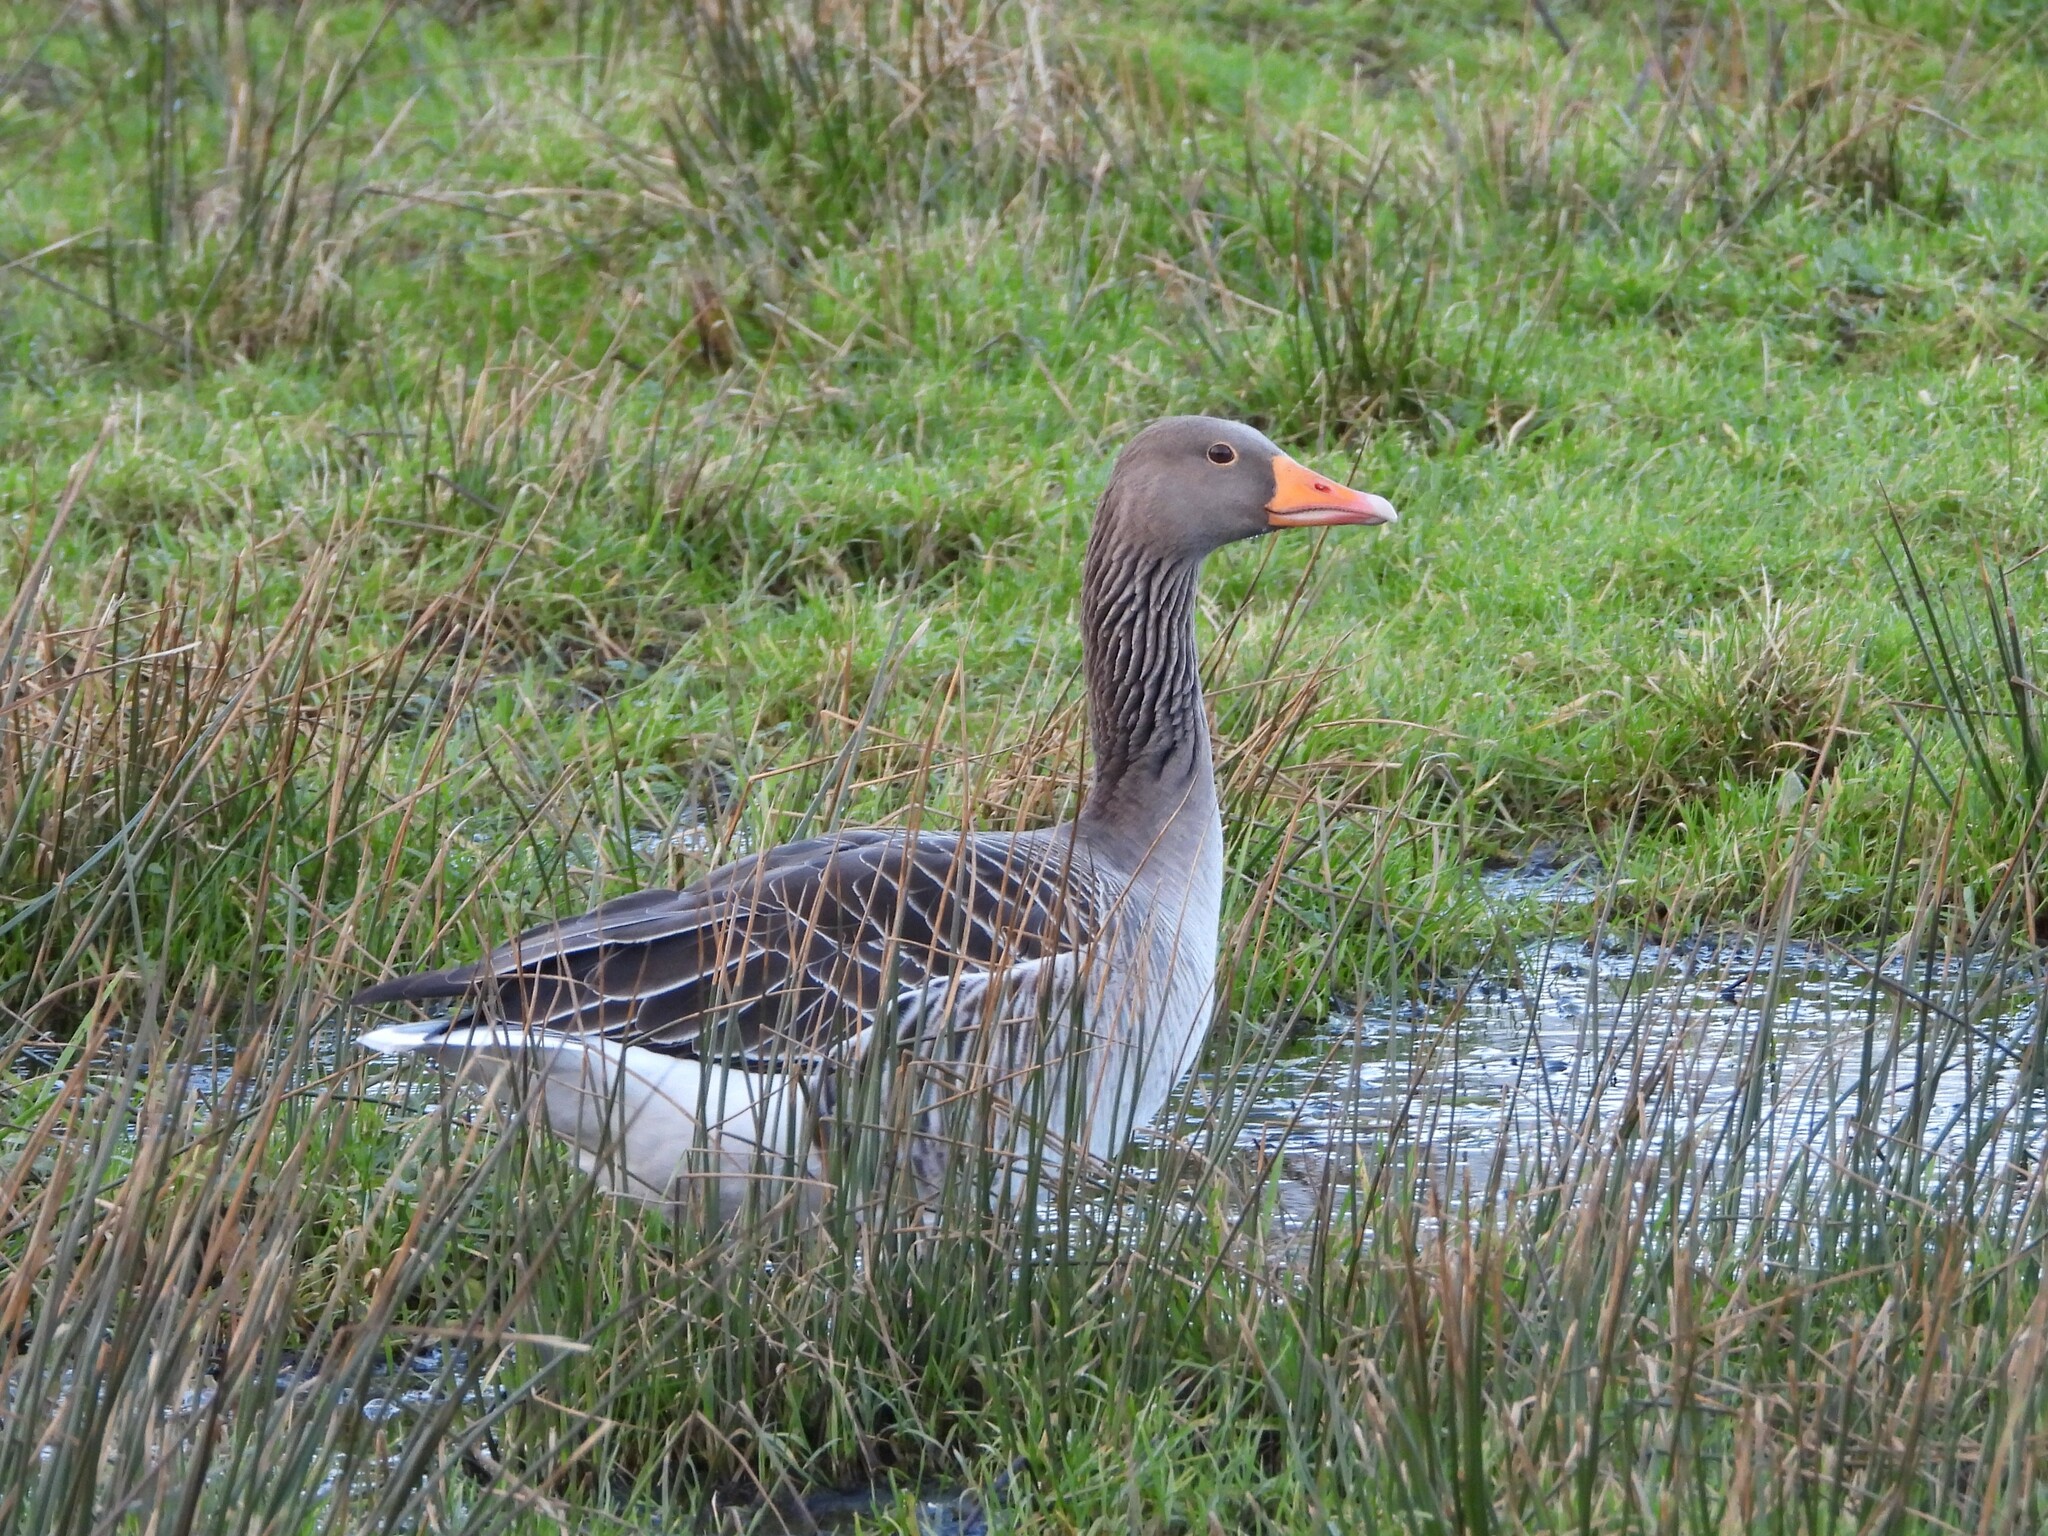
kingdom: Animalia
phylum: Chordata
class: Aves
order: Anseriformes
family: Anatidae
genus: Anser
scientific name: Anser anser
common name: Greylag goose
